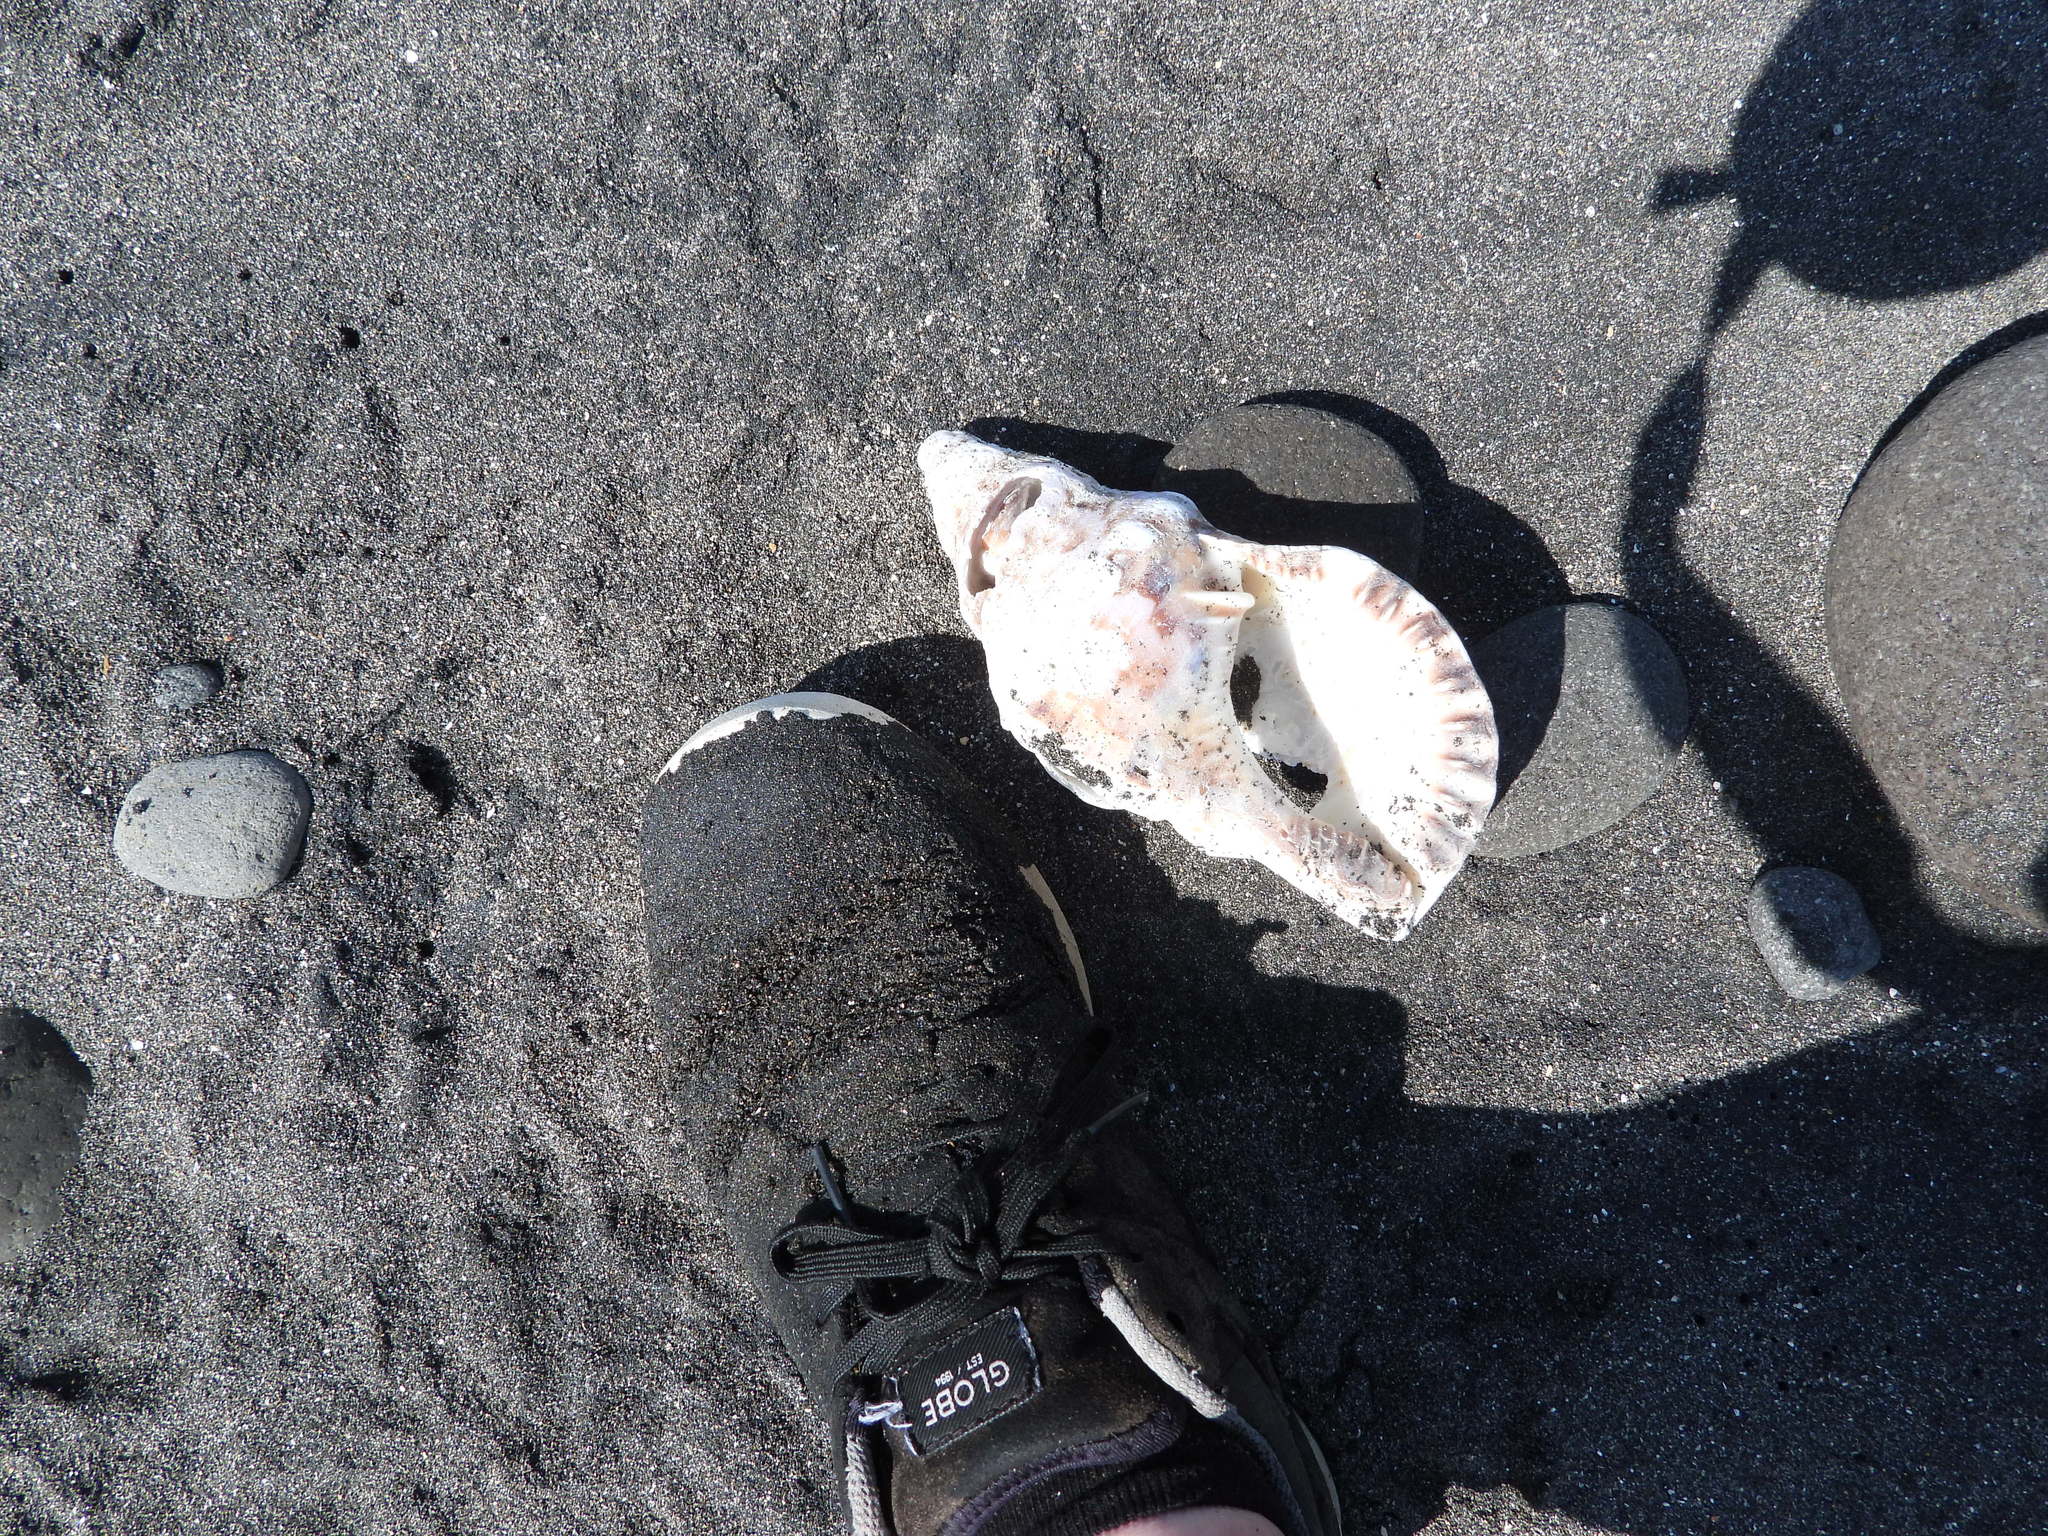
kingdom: Animalia
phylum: Mollusca
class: Gastropoda
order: Littorinimorpha
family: Charoniidae
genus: Charonia
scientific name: Charonia lampas
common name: Knobbed triton
